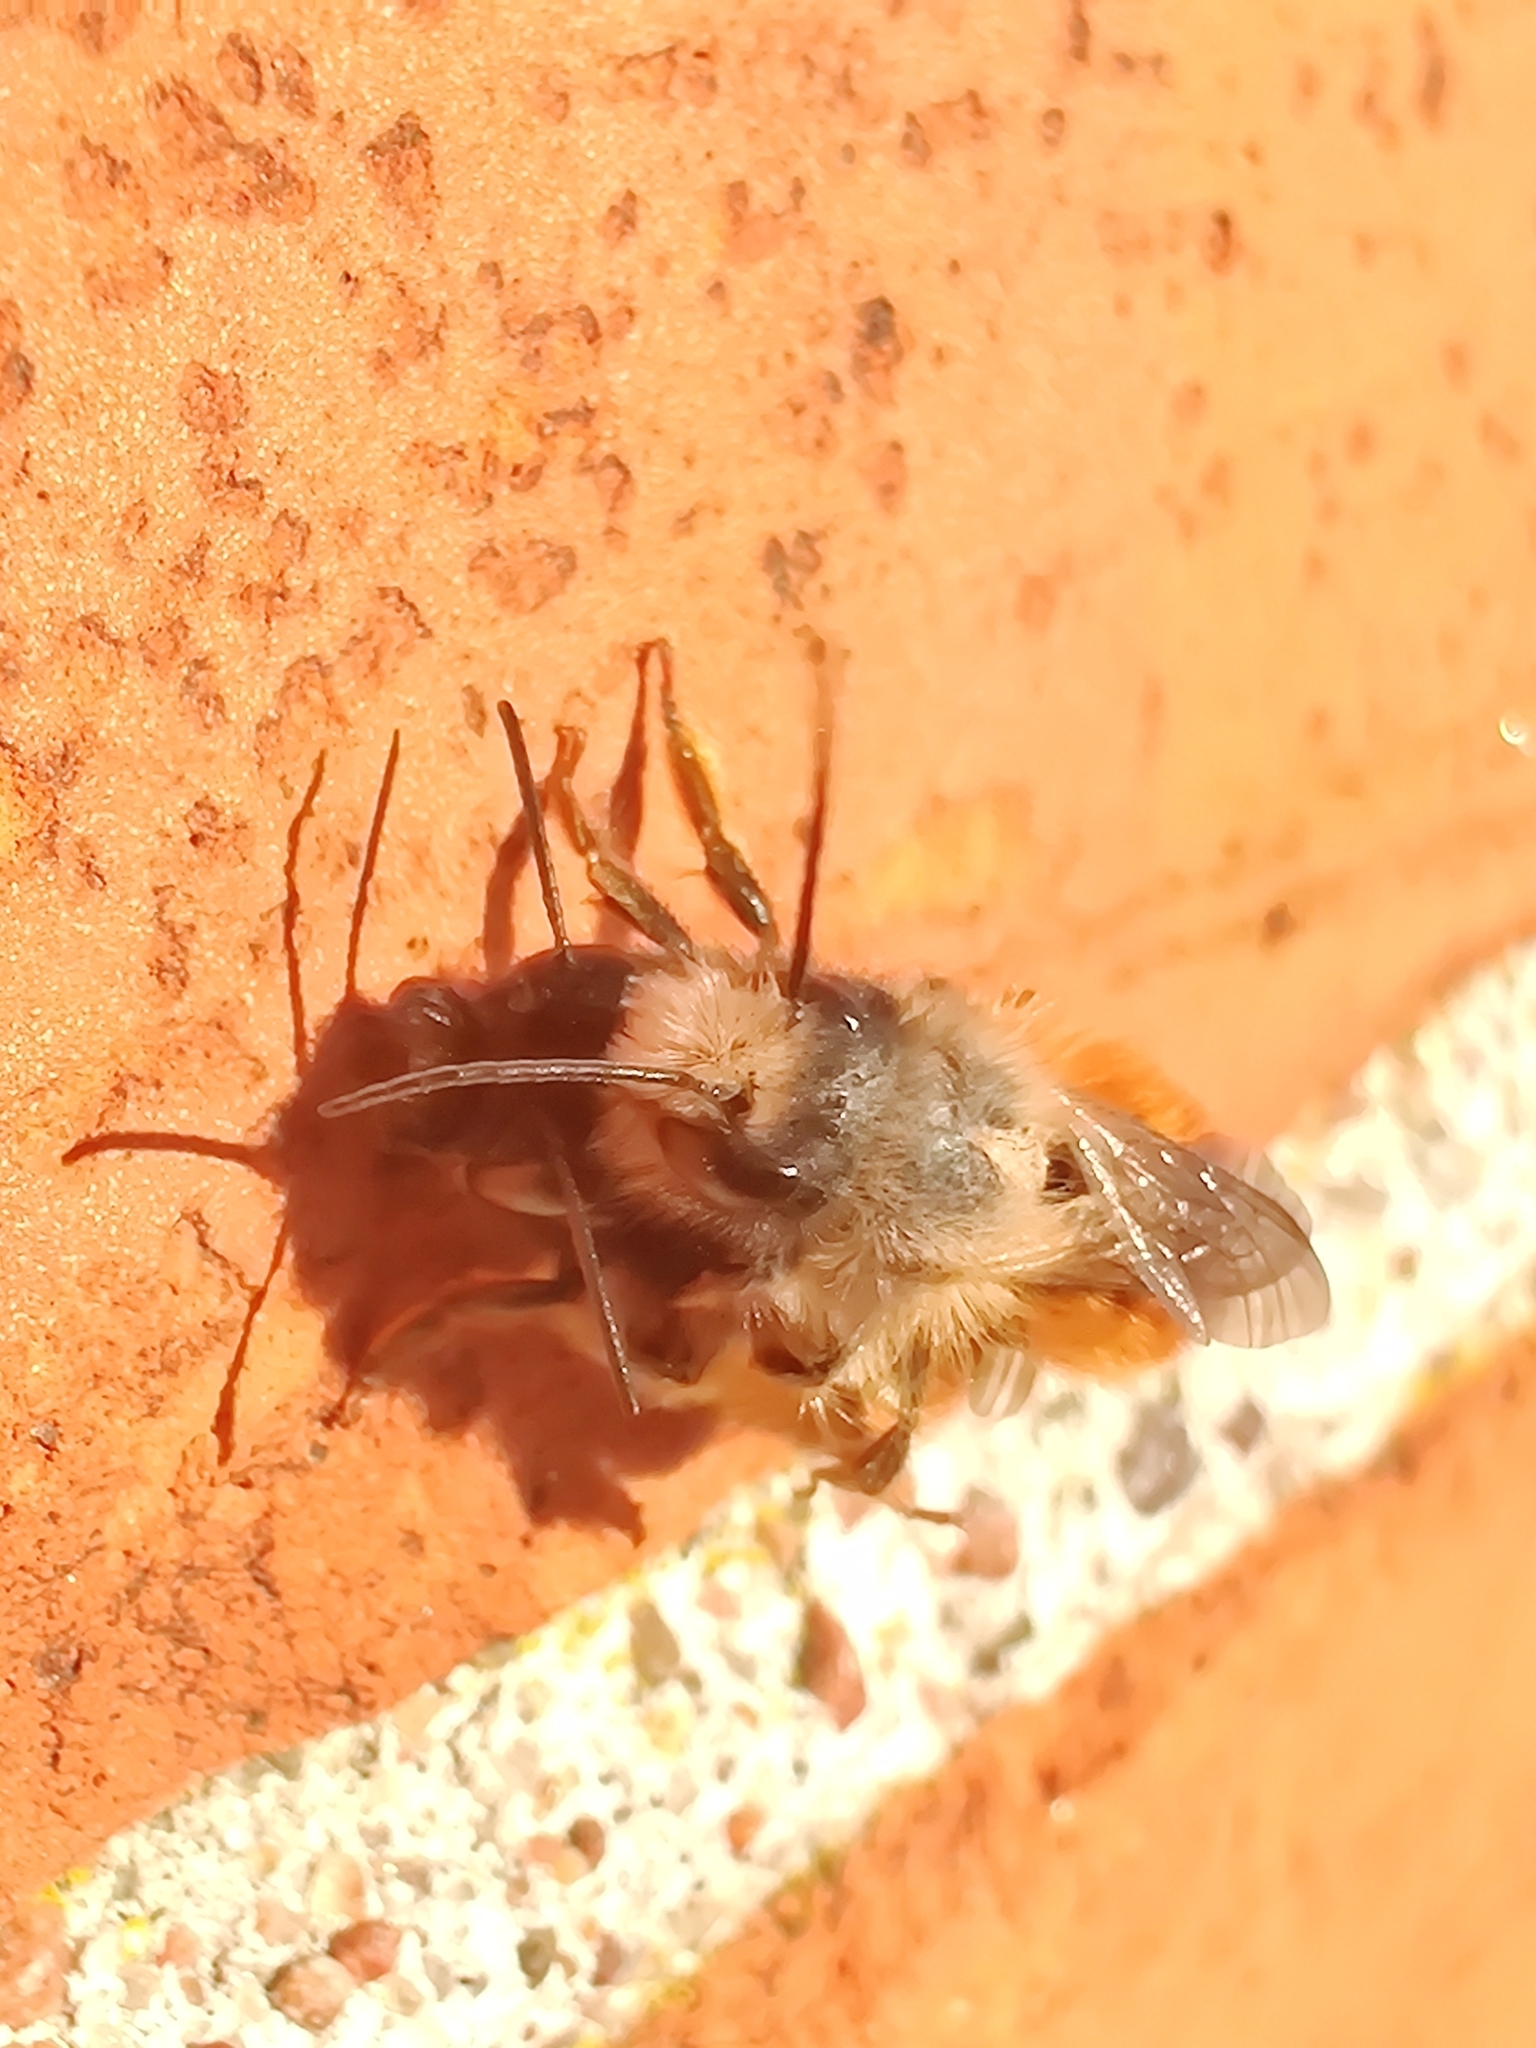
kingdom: Animalia
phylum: Arthropoda
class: Insecta
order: Hymenoptera
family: Megachilidae
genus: Osmia
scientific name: Osmia bicornis
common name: Red mason bee
